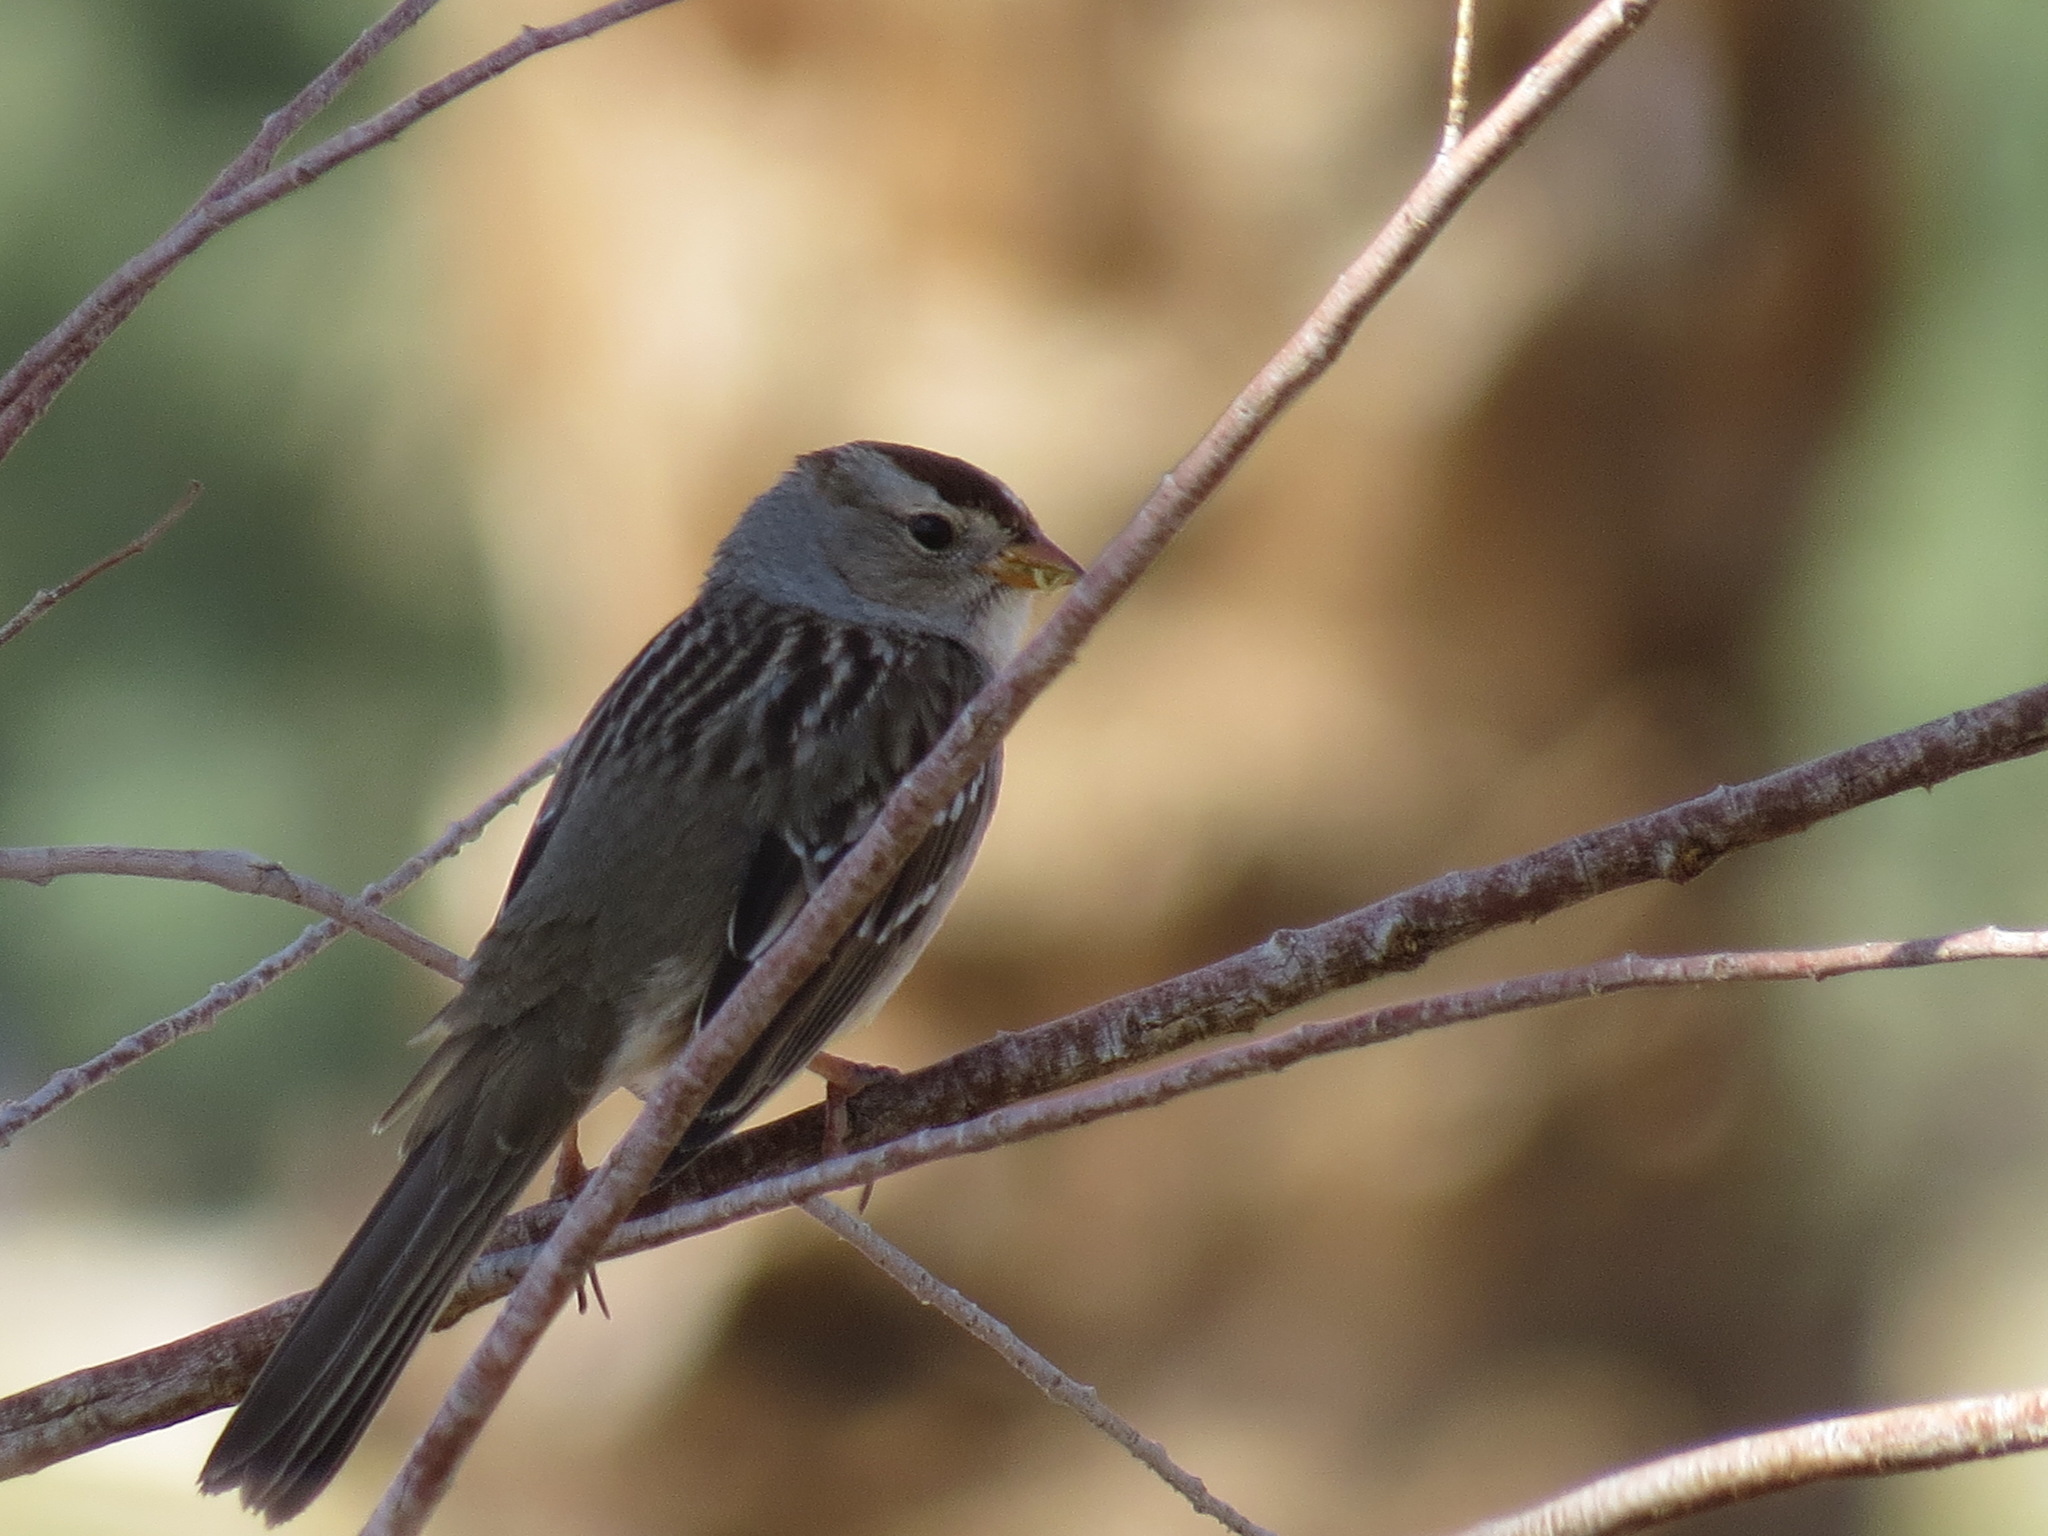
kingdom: Animalia
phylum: Chordata
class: Aves
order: Passeriformes
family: Passerellidae
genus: Zonotrichia
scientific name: Zonotrichia leucophrys
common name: White-crowned sparrow
